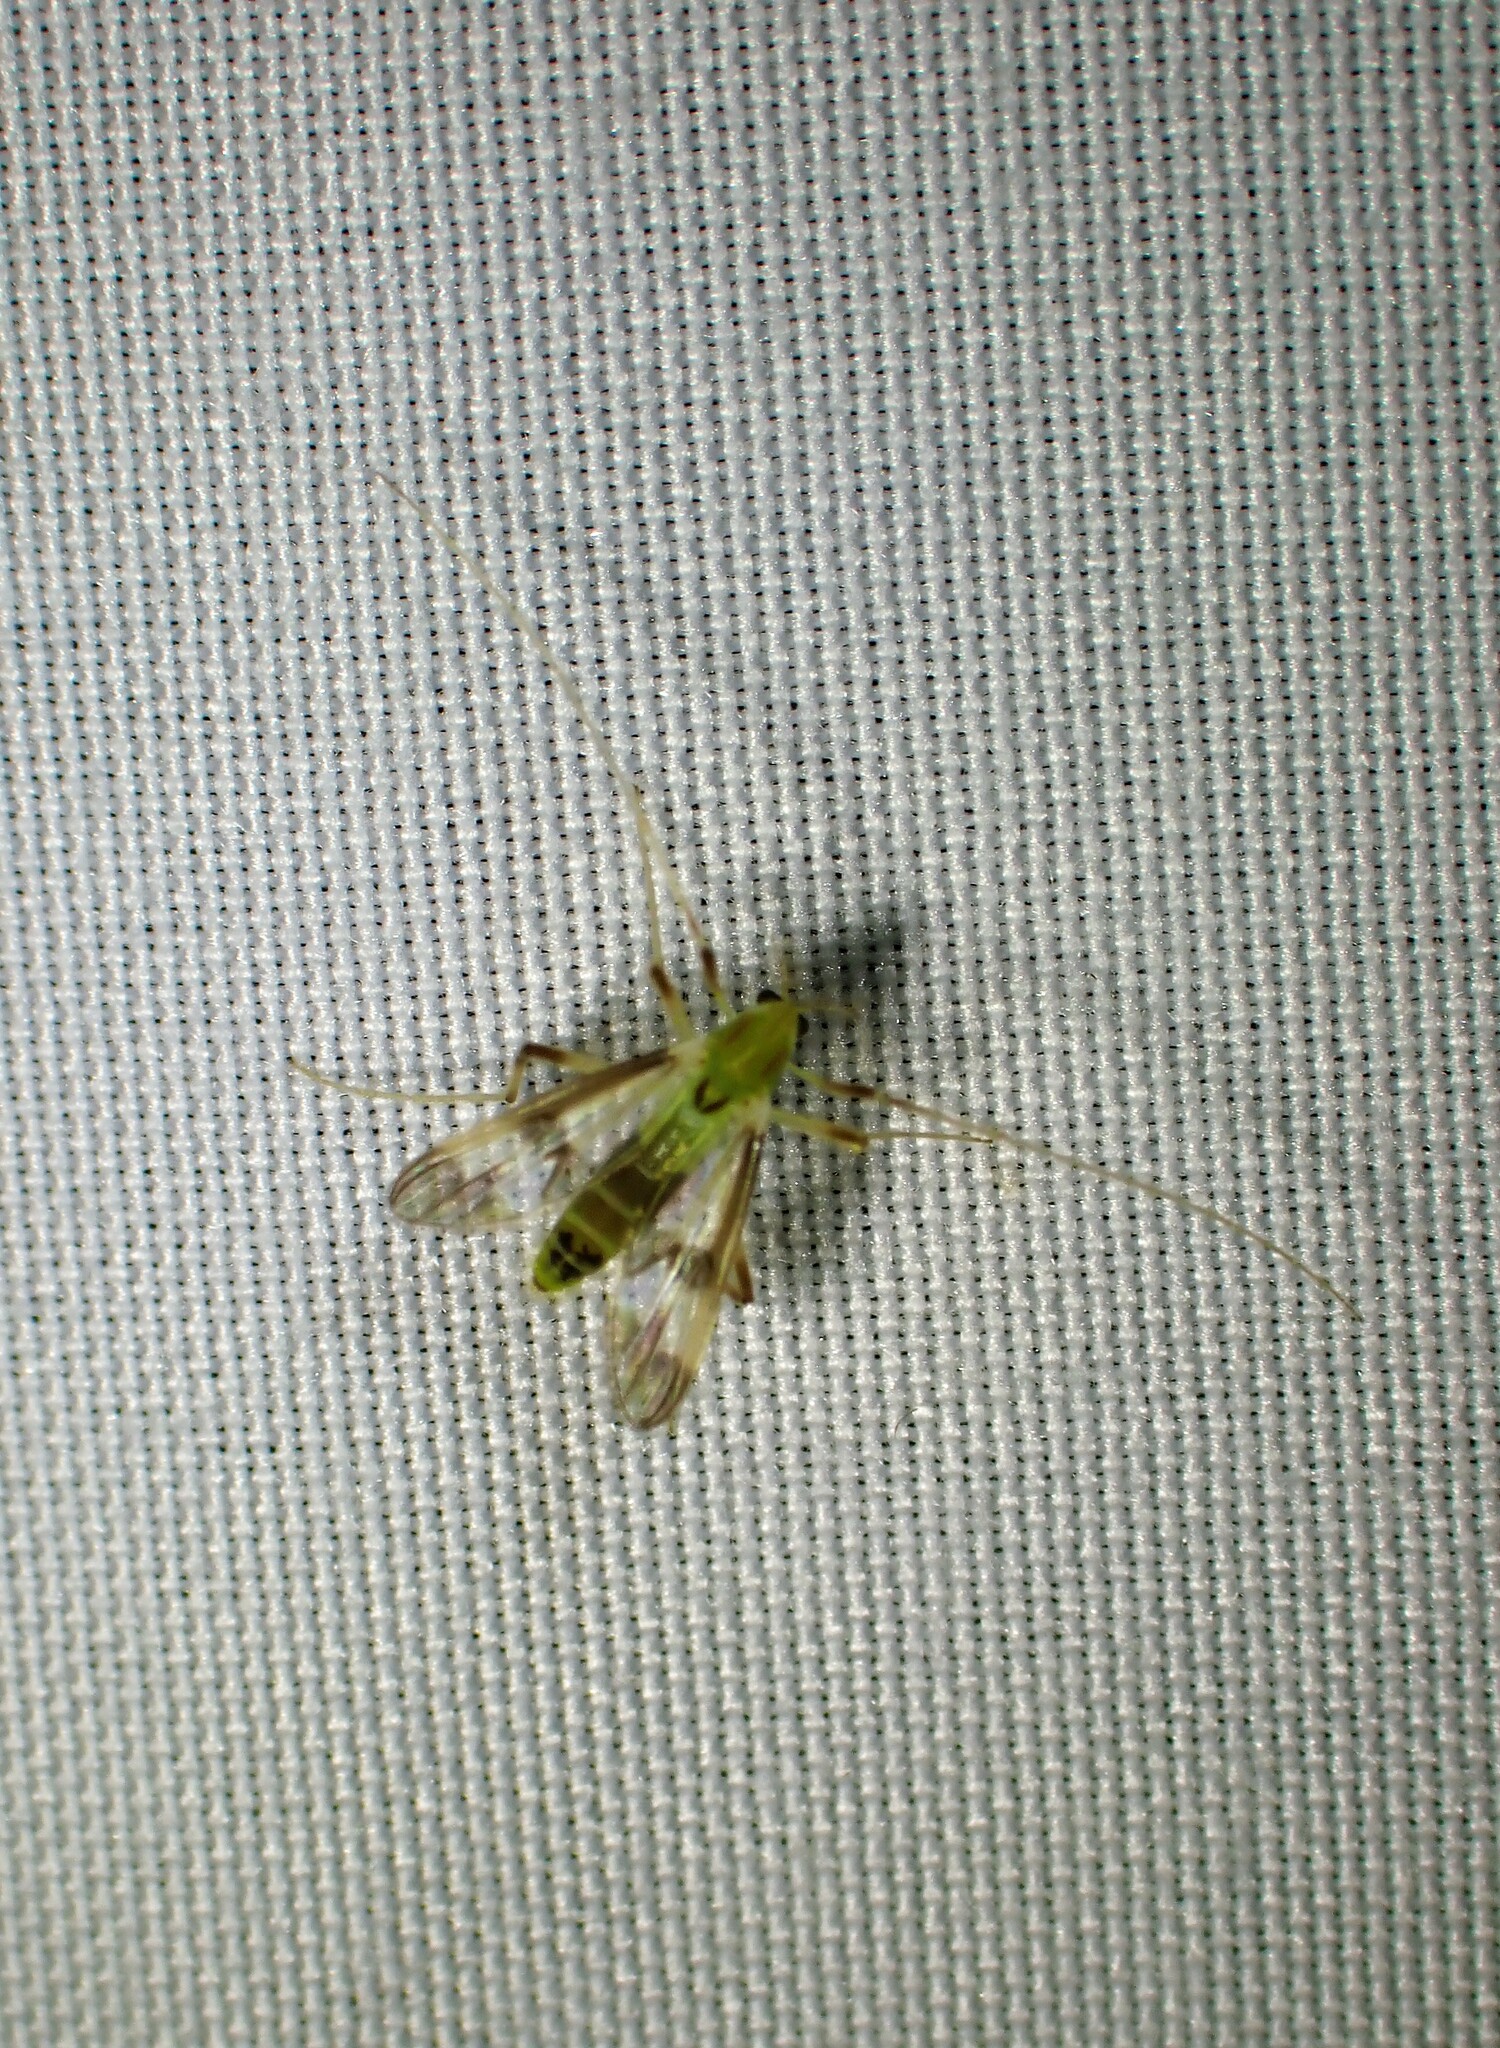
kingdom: Animalia
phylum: Arthropoda
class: Insecta
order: Diptera
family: Chironomidae
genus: Stenochironomus
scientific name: Stenochironomus hilaris
